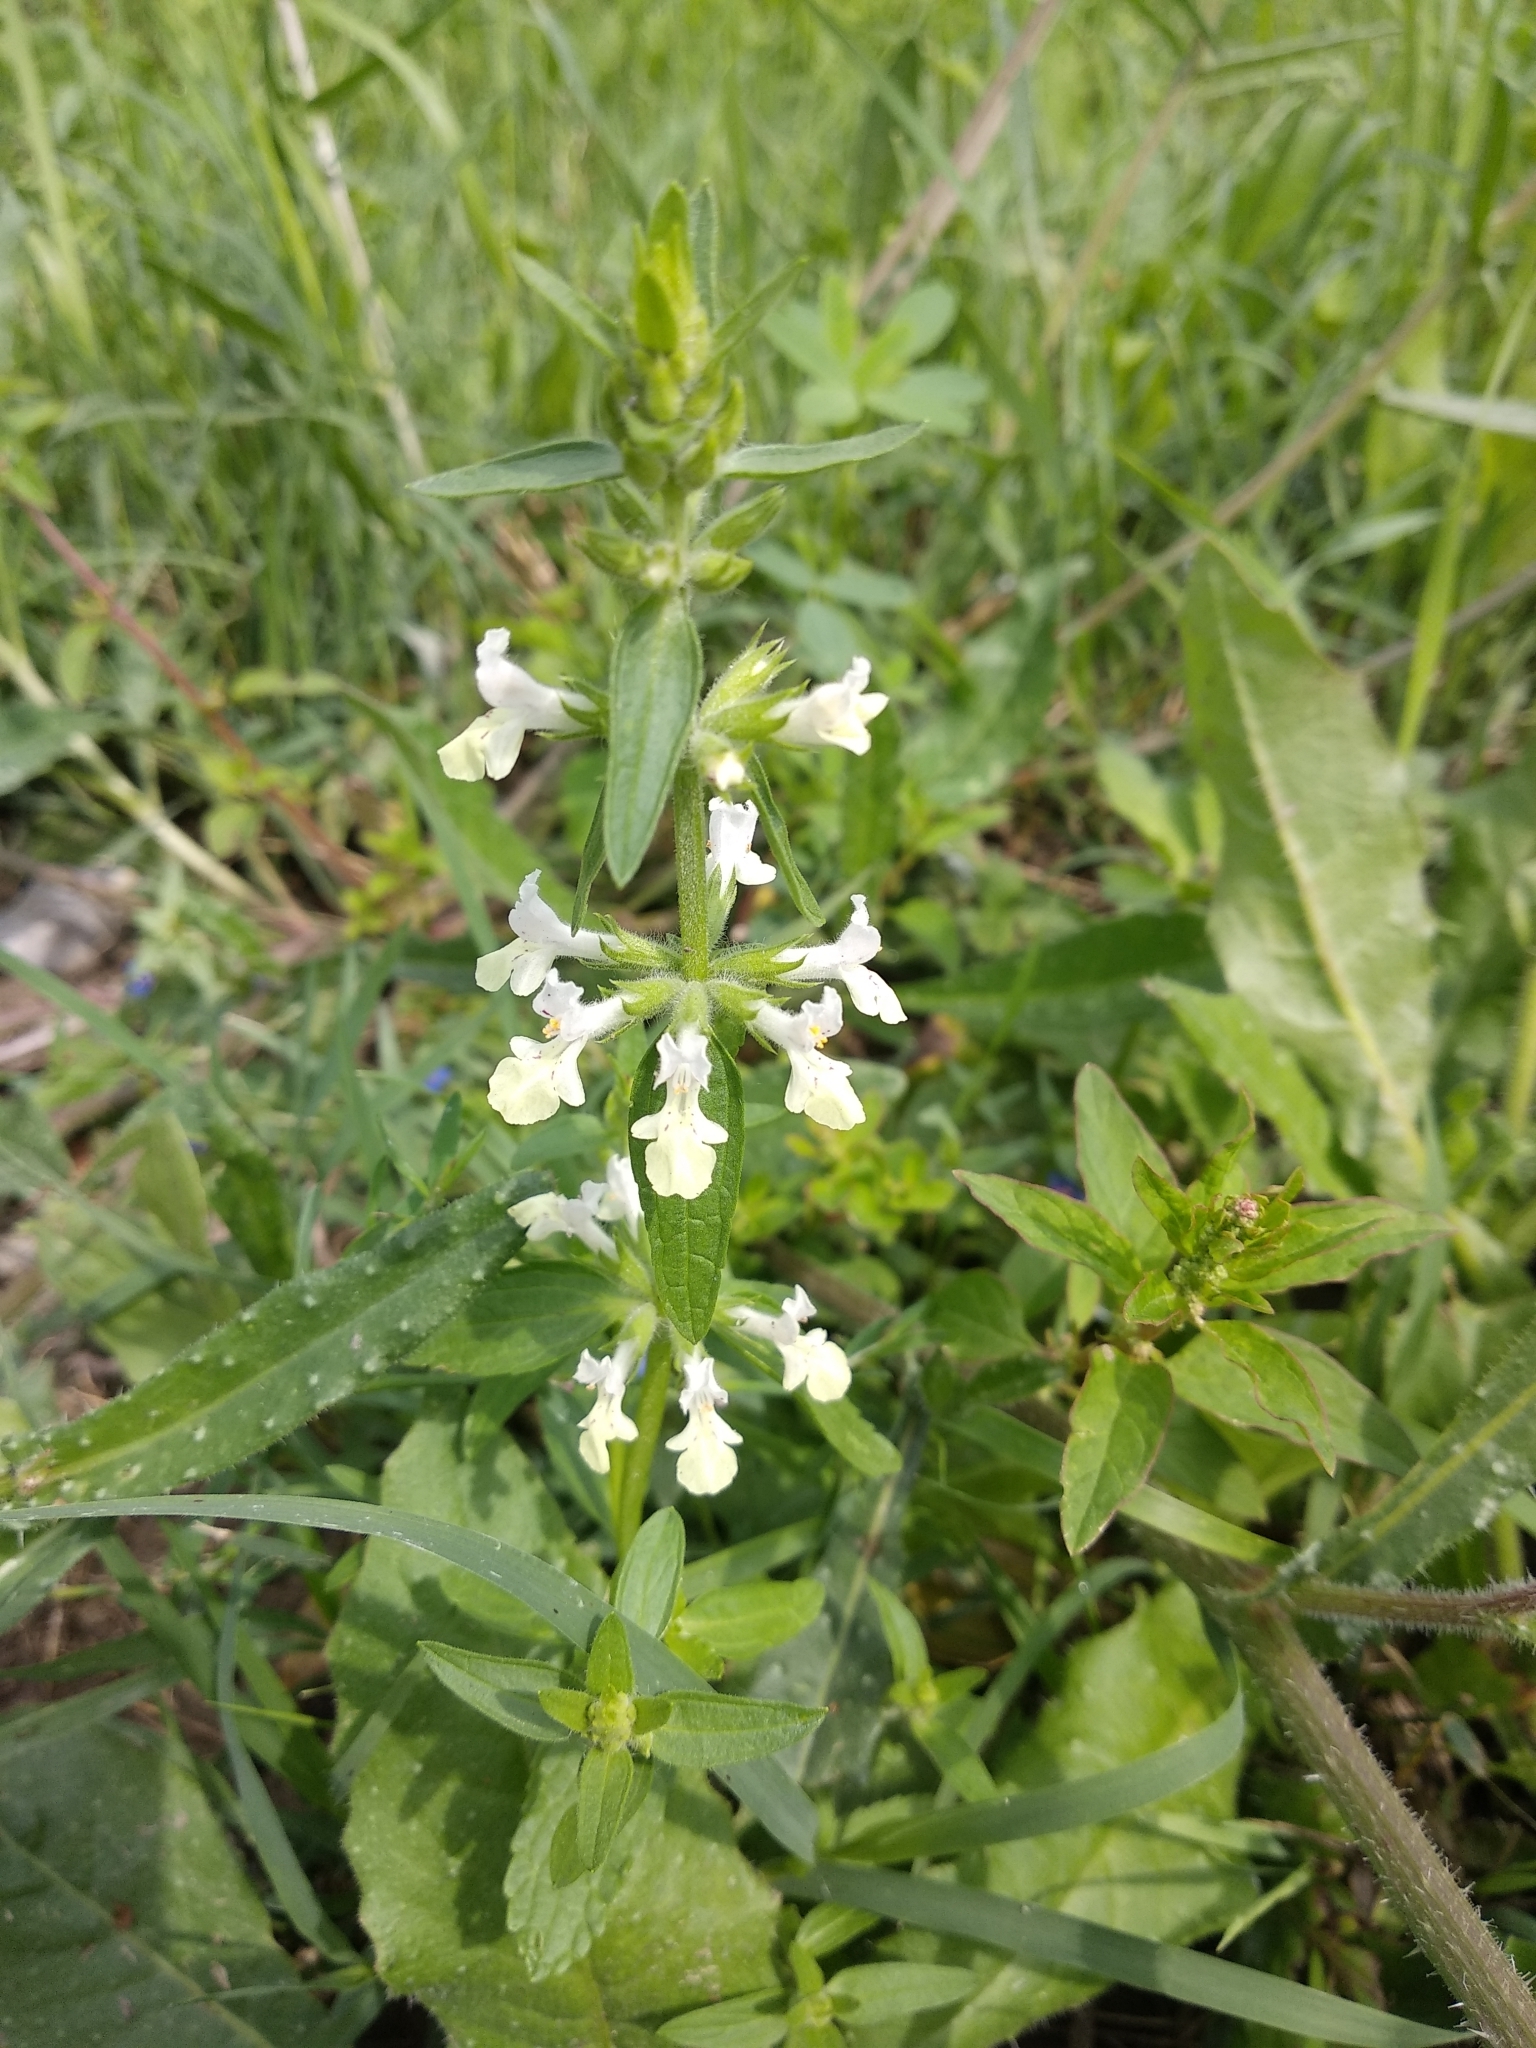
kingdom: Plantae
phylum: Tracheophyta
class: Magnoliopsida
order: Lamiales
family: Lamiaceae
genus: Stachys
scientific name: Stachys annua
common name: Annual yellow-woundwort
